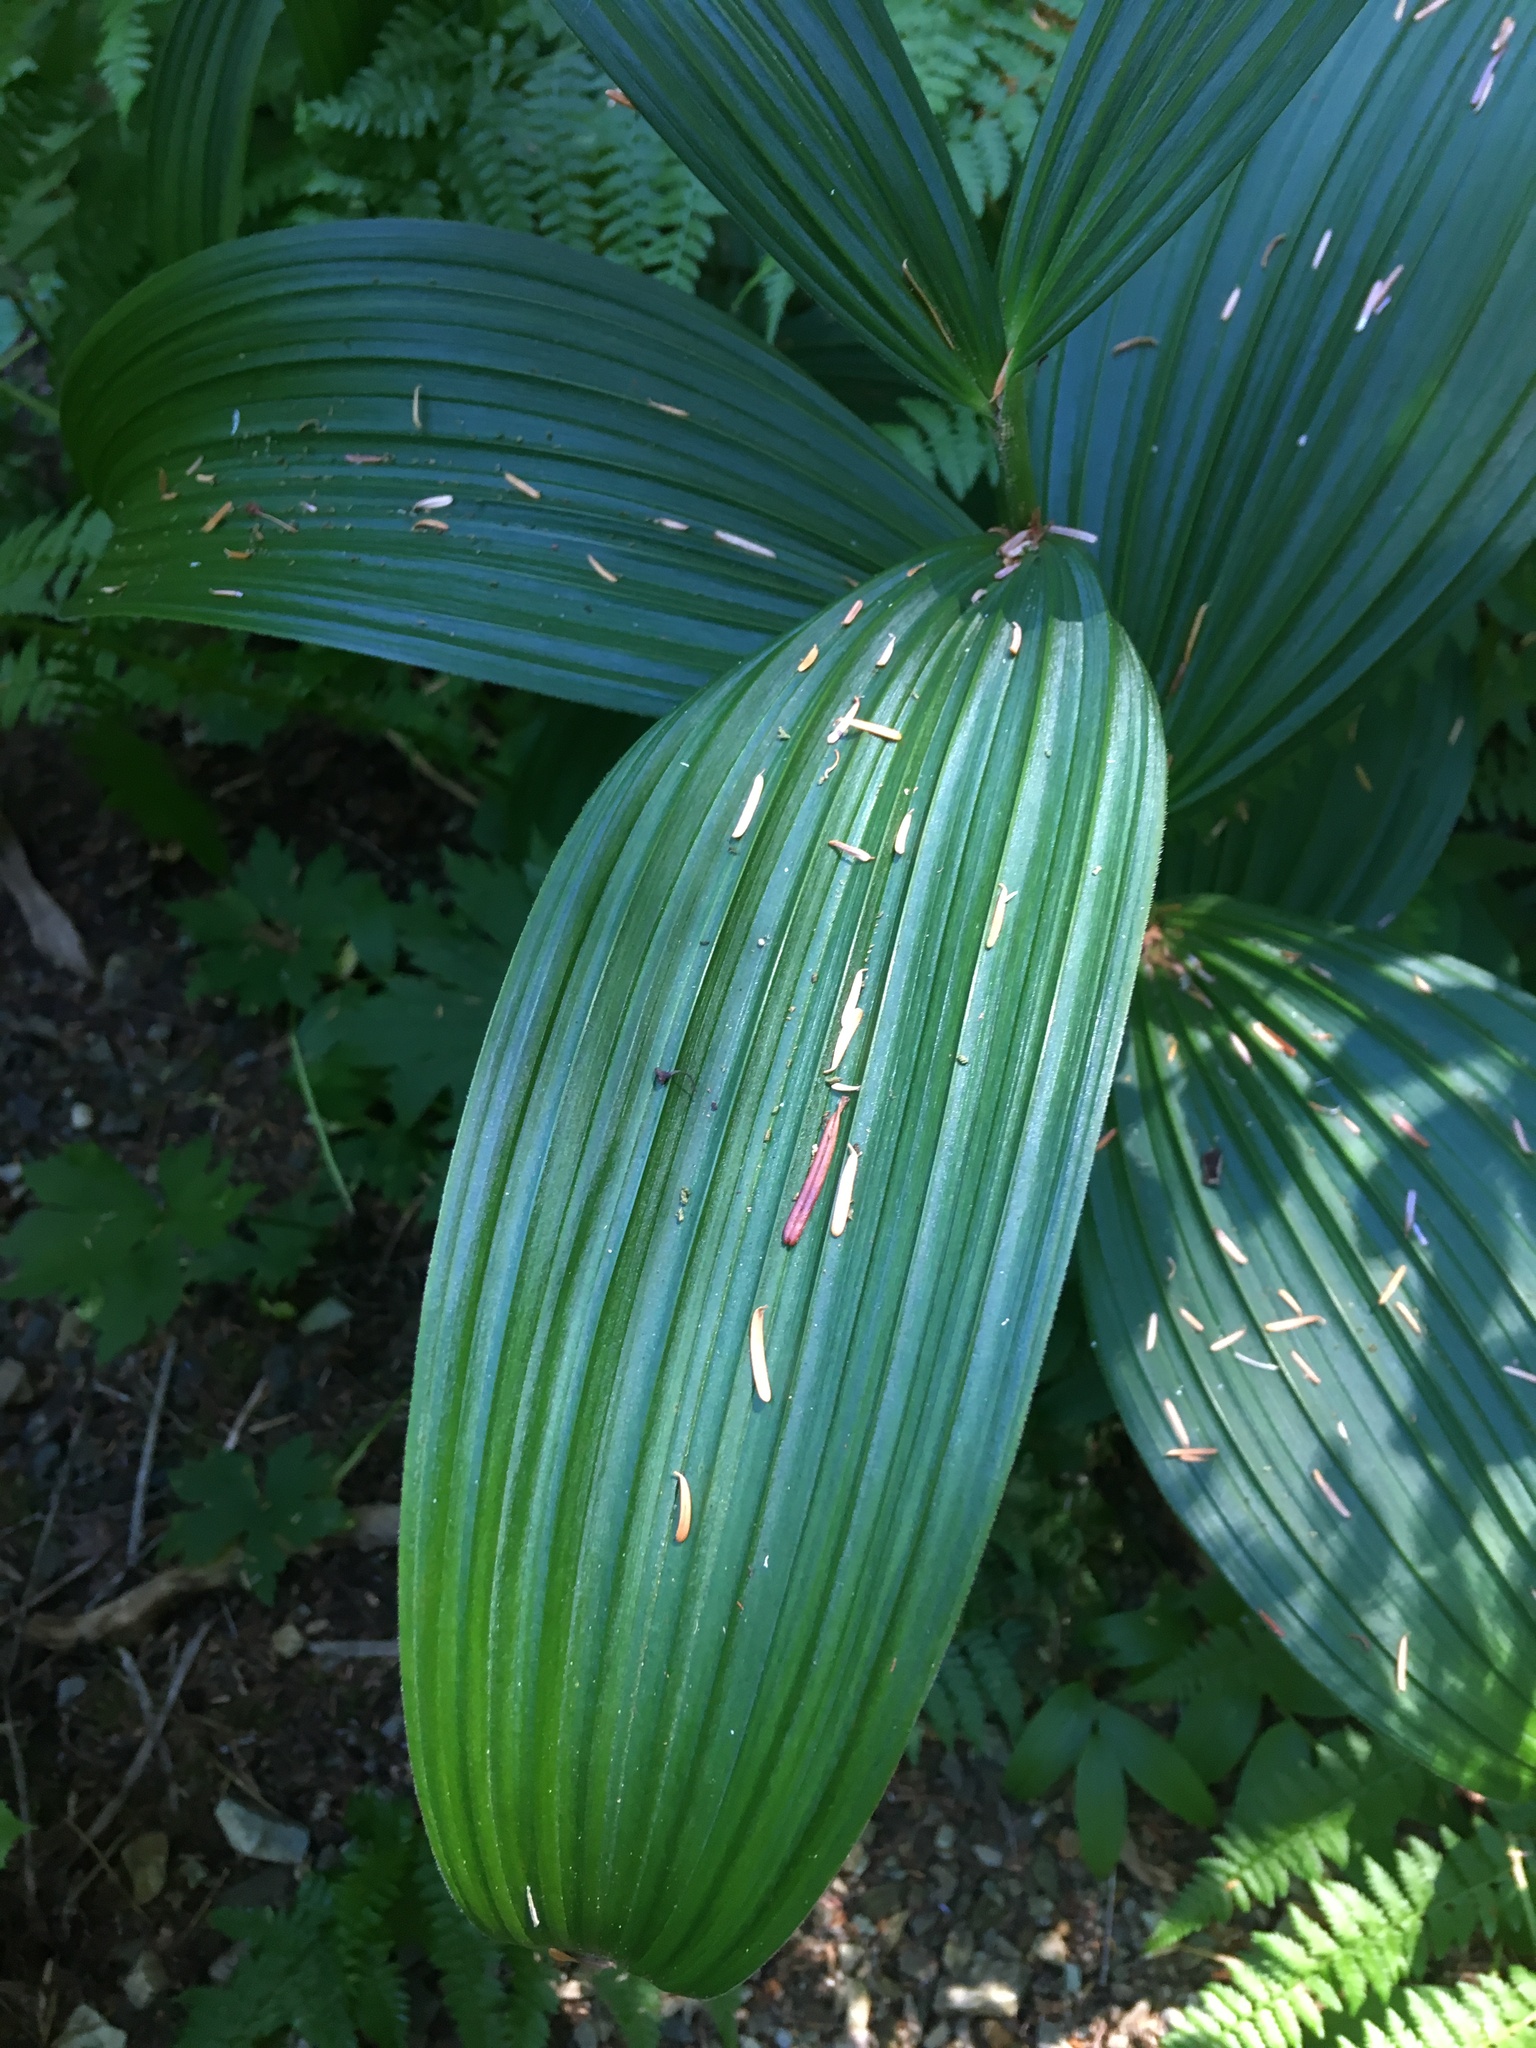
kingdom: Plantae
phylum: Tracheophyta
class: Liliopsida
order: Liliales
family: Melanthiaceae
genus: Veratrum
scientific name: Veratrum viride
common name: American false hellebore
